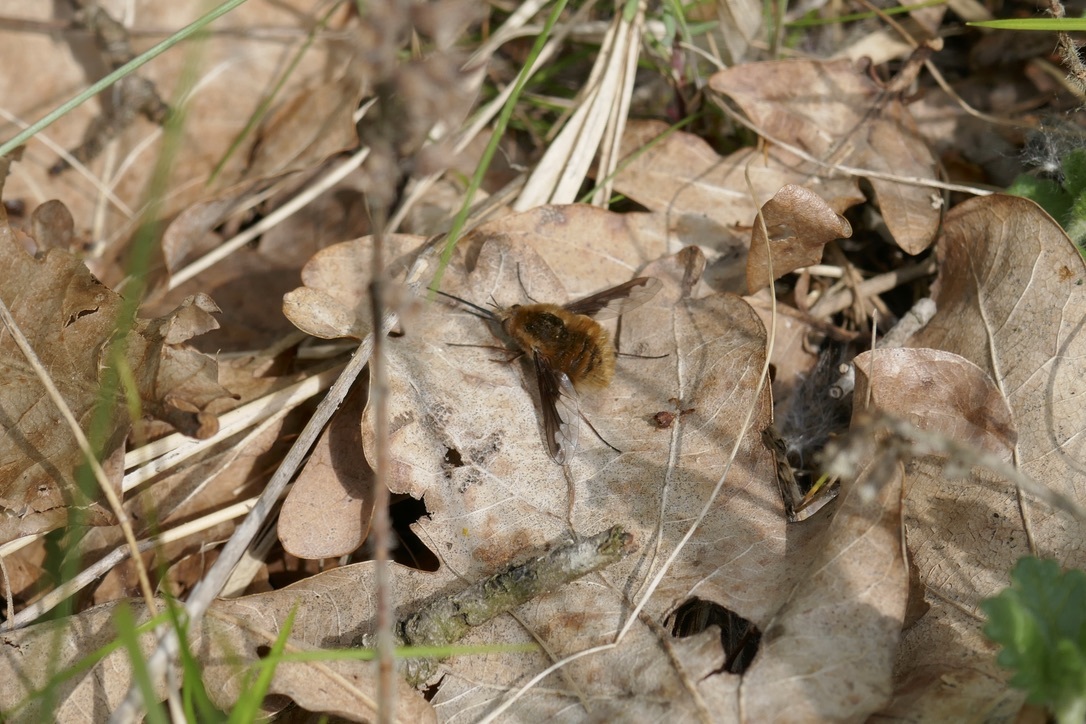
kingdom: Animalia
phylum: Arthropoda
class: Insecta
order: Diptera
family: Bombyliidae
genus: Bombylius
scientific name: Bombylius major
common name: Bee fly
